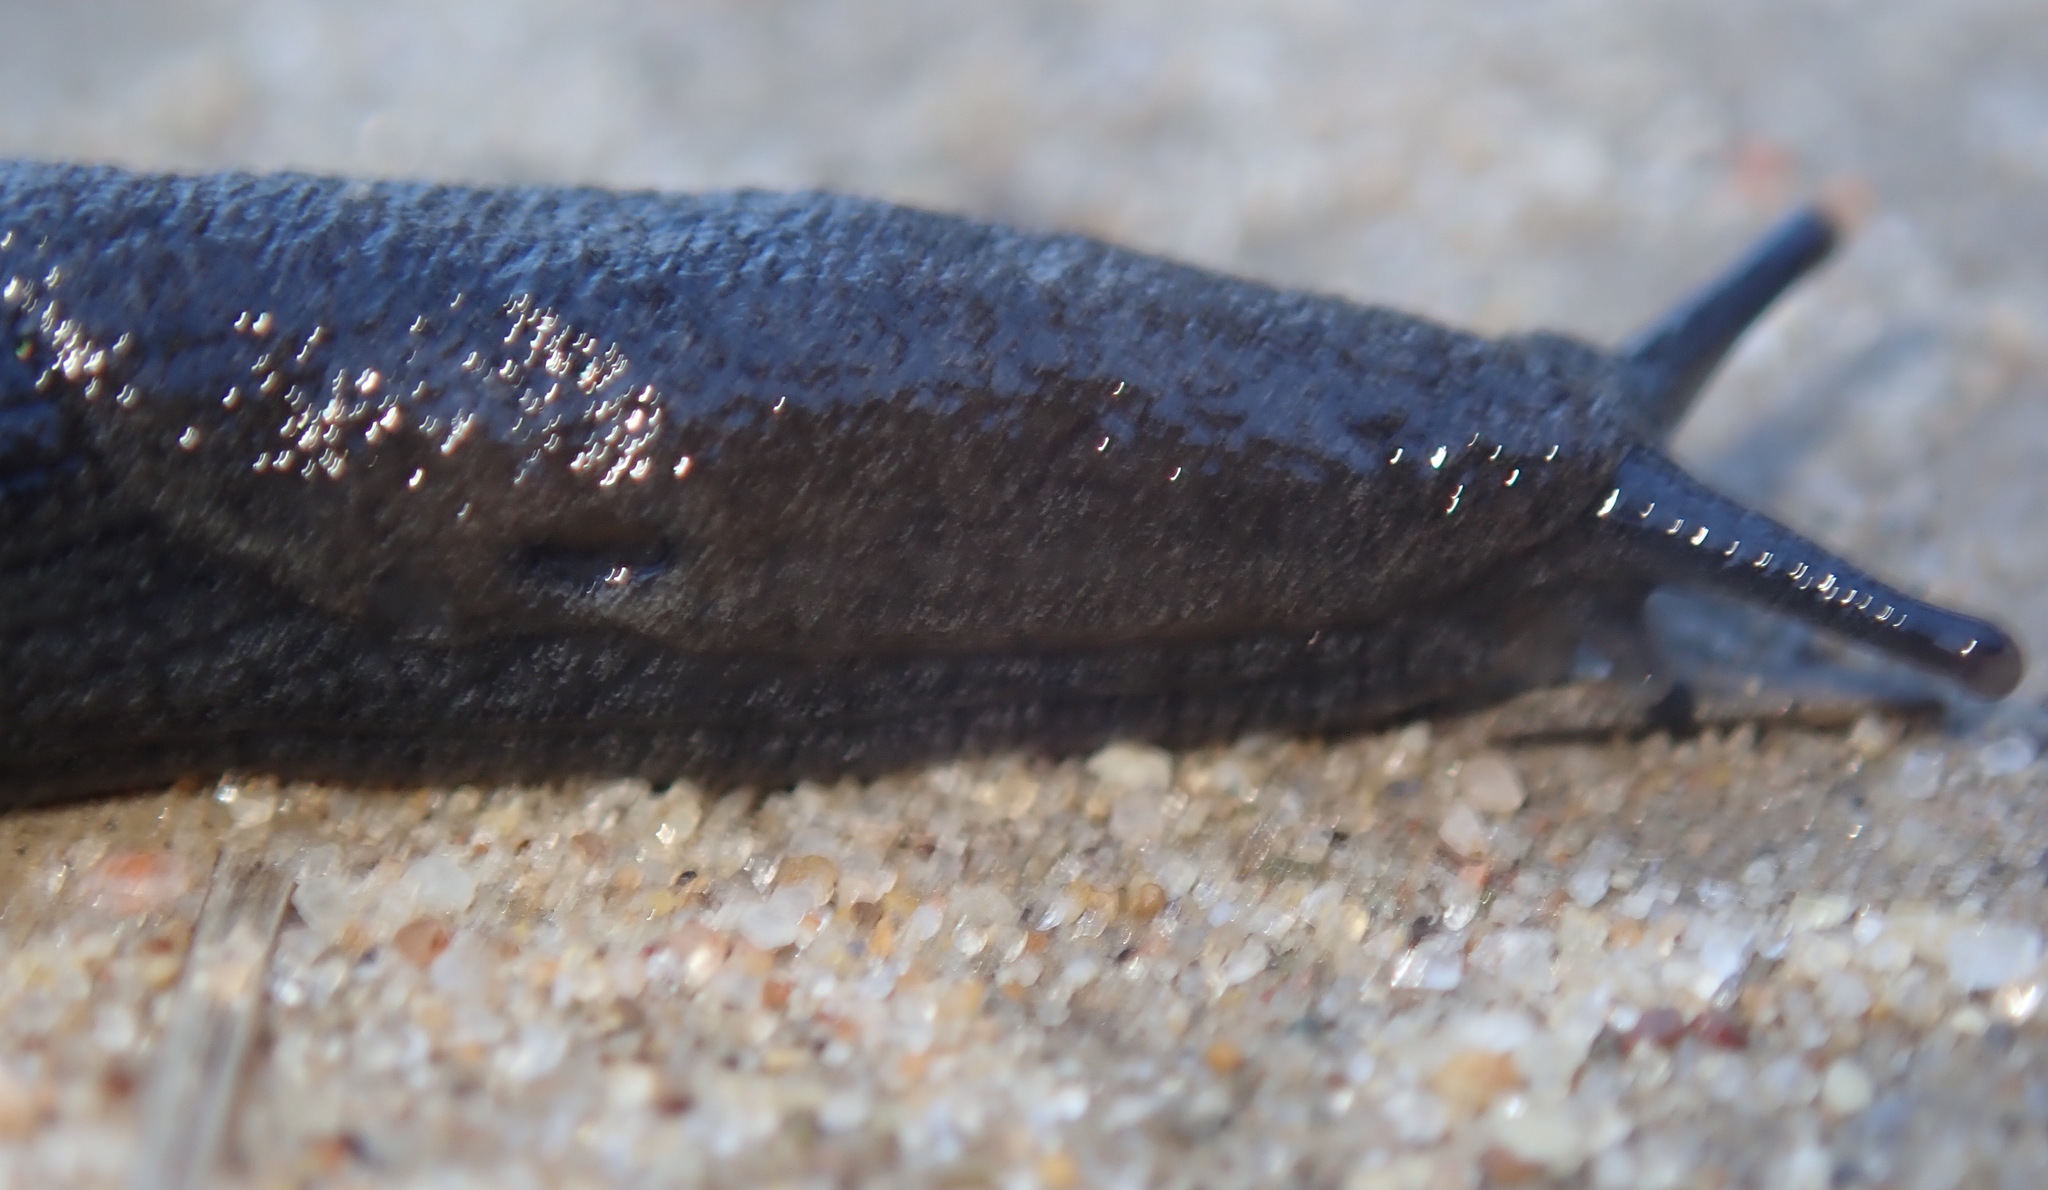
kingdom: Animalia
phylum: Mollusca
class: Gastropoda
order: Stylommatophora
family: Ariolimacidae
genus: Hesperarion
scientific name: Hesperarion niger
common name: Black western slug
